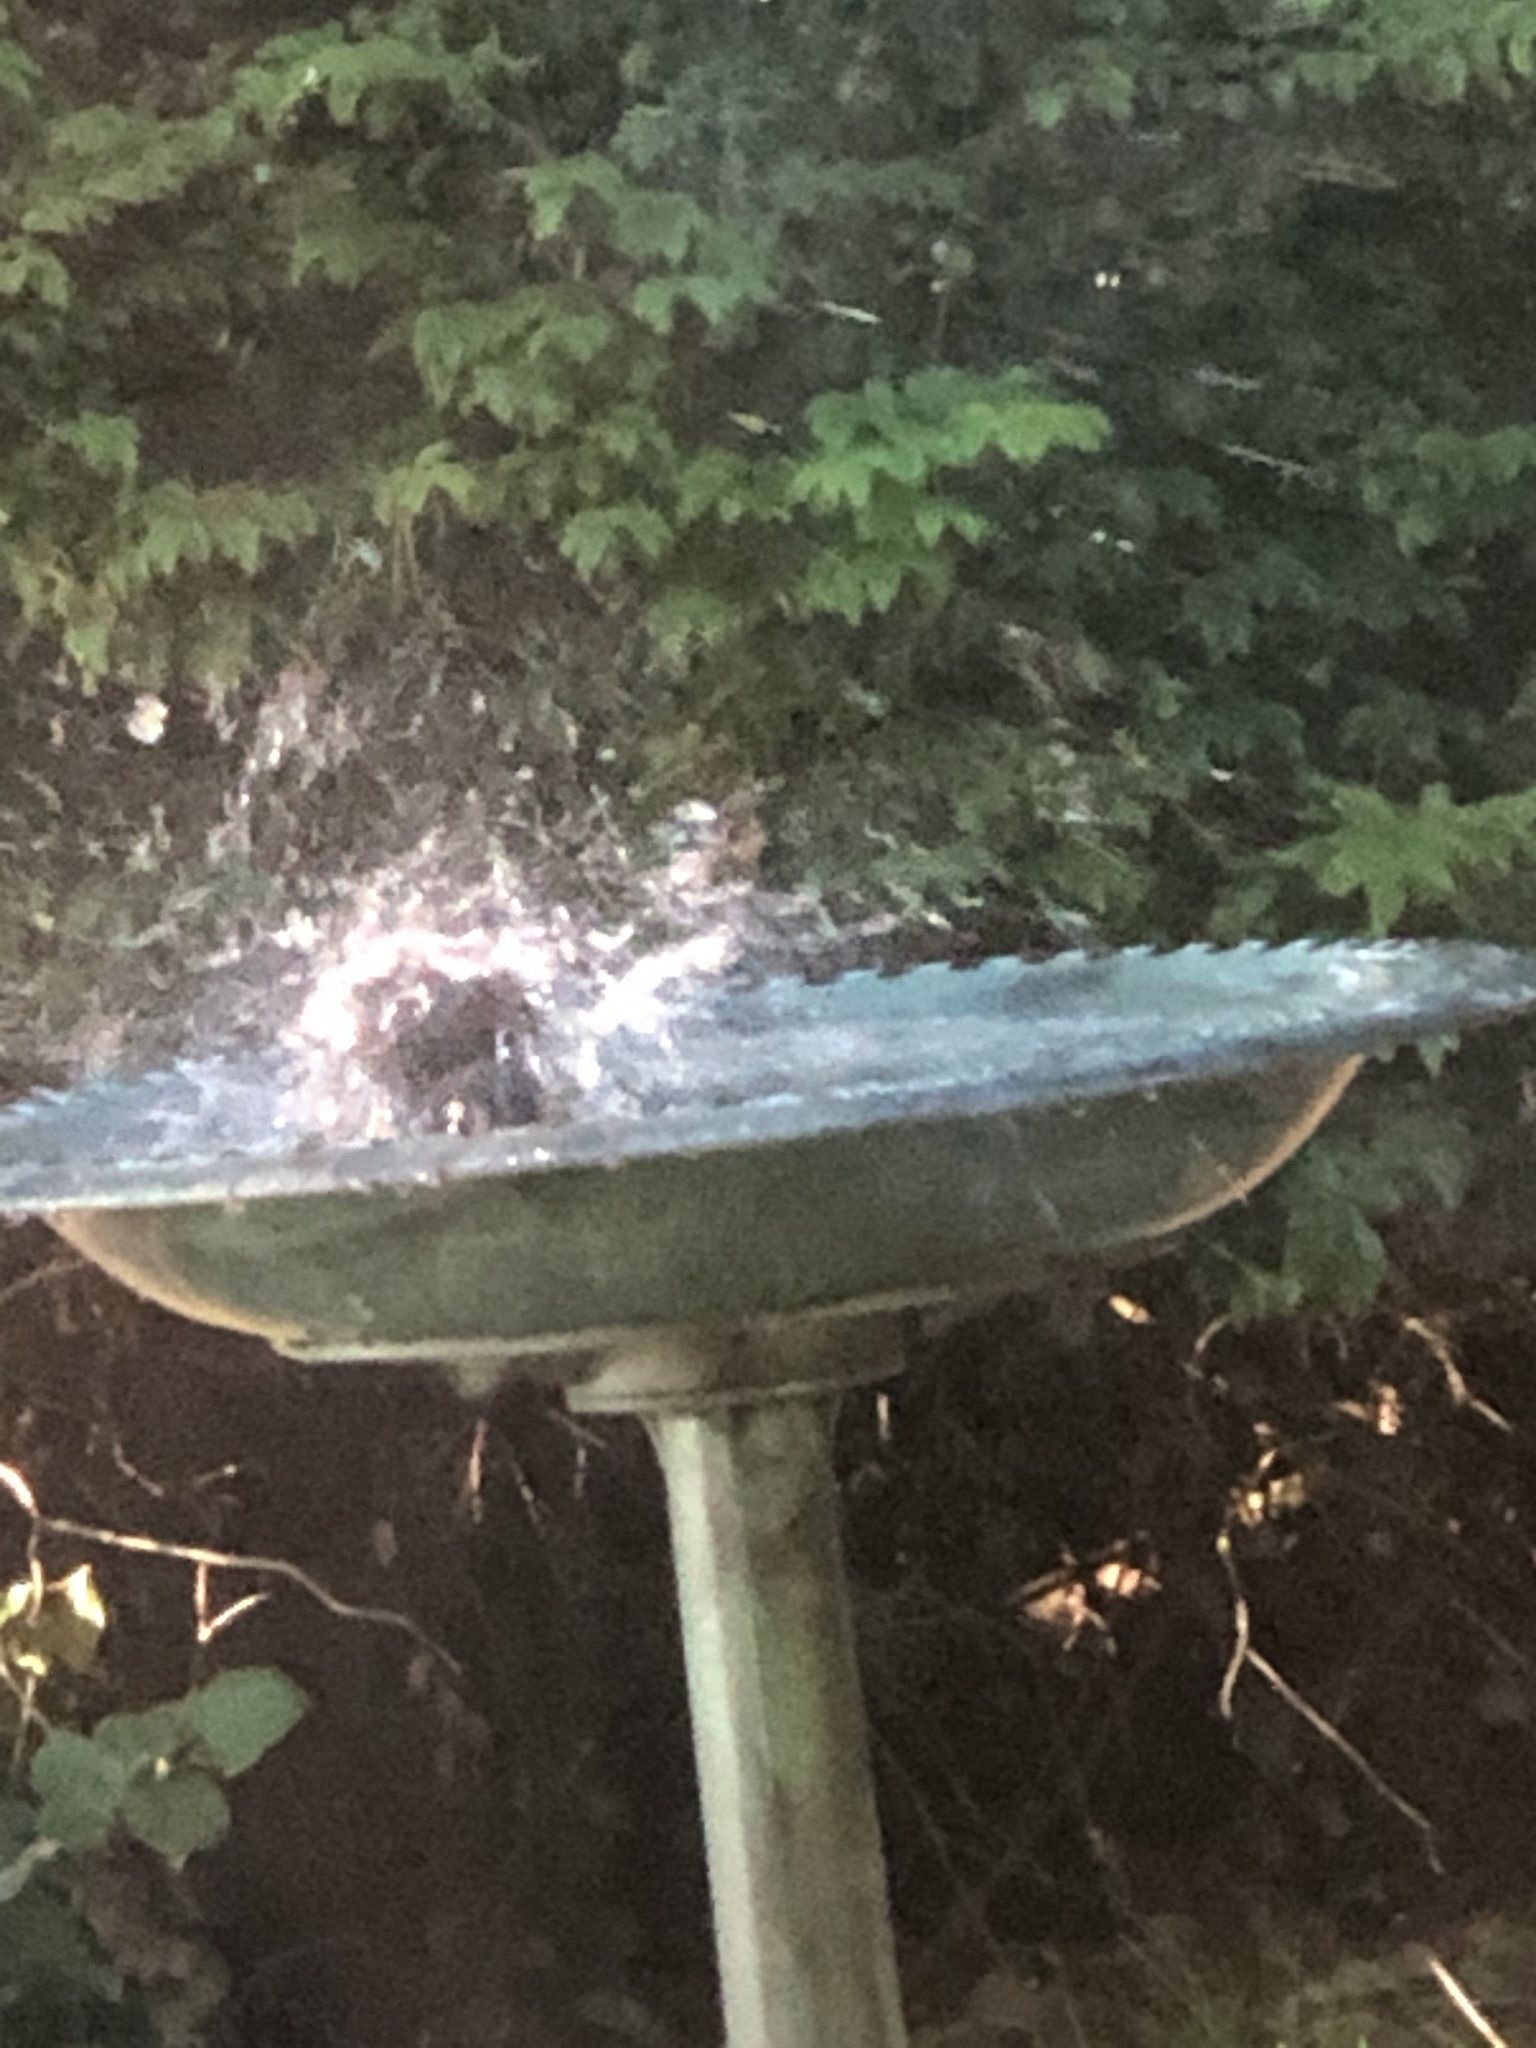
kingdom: Animalia
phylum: Chordata
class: Aves
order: Passeriformes
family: Turdidae
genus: Turdus
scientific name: Turdus migratorius
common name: American robin
